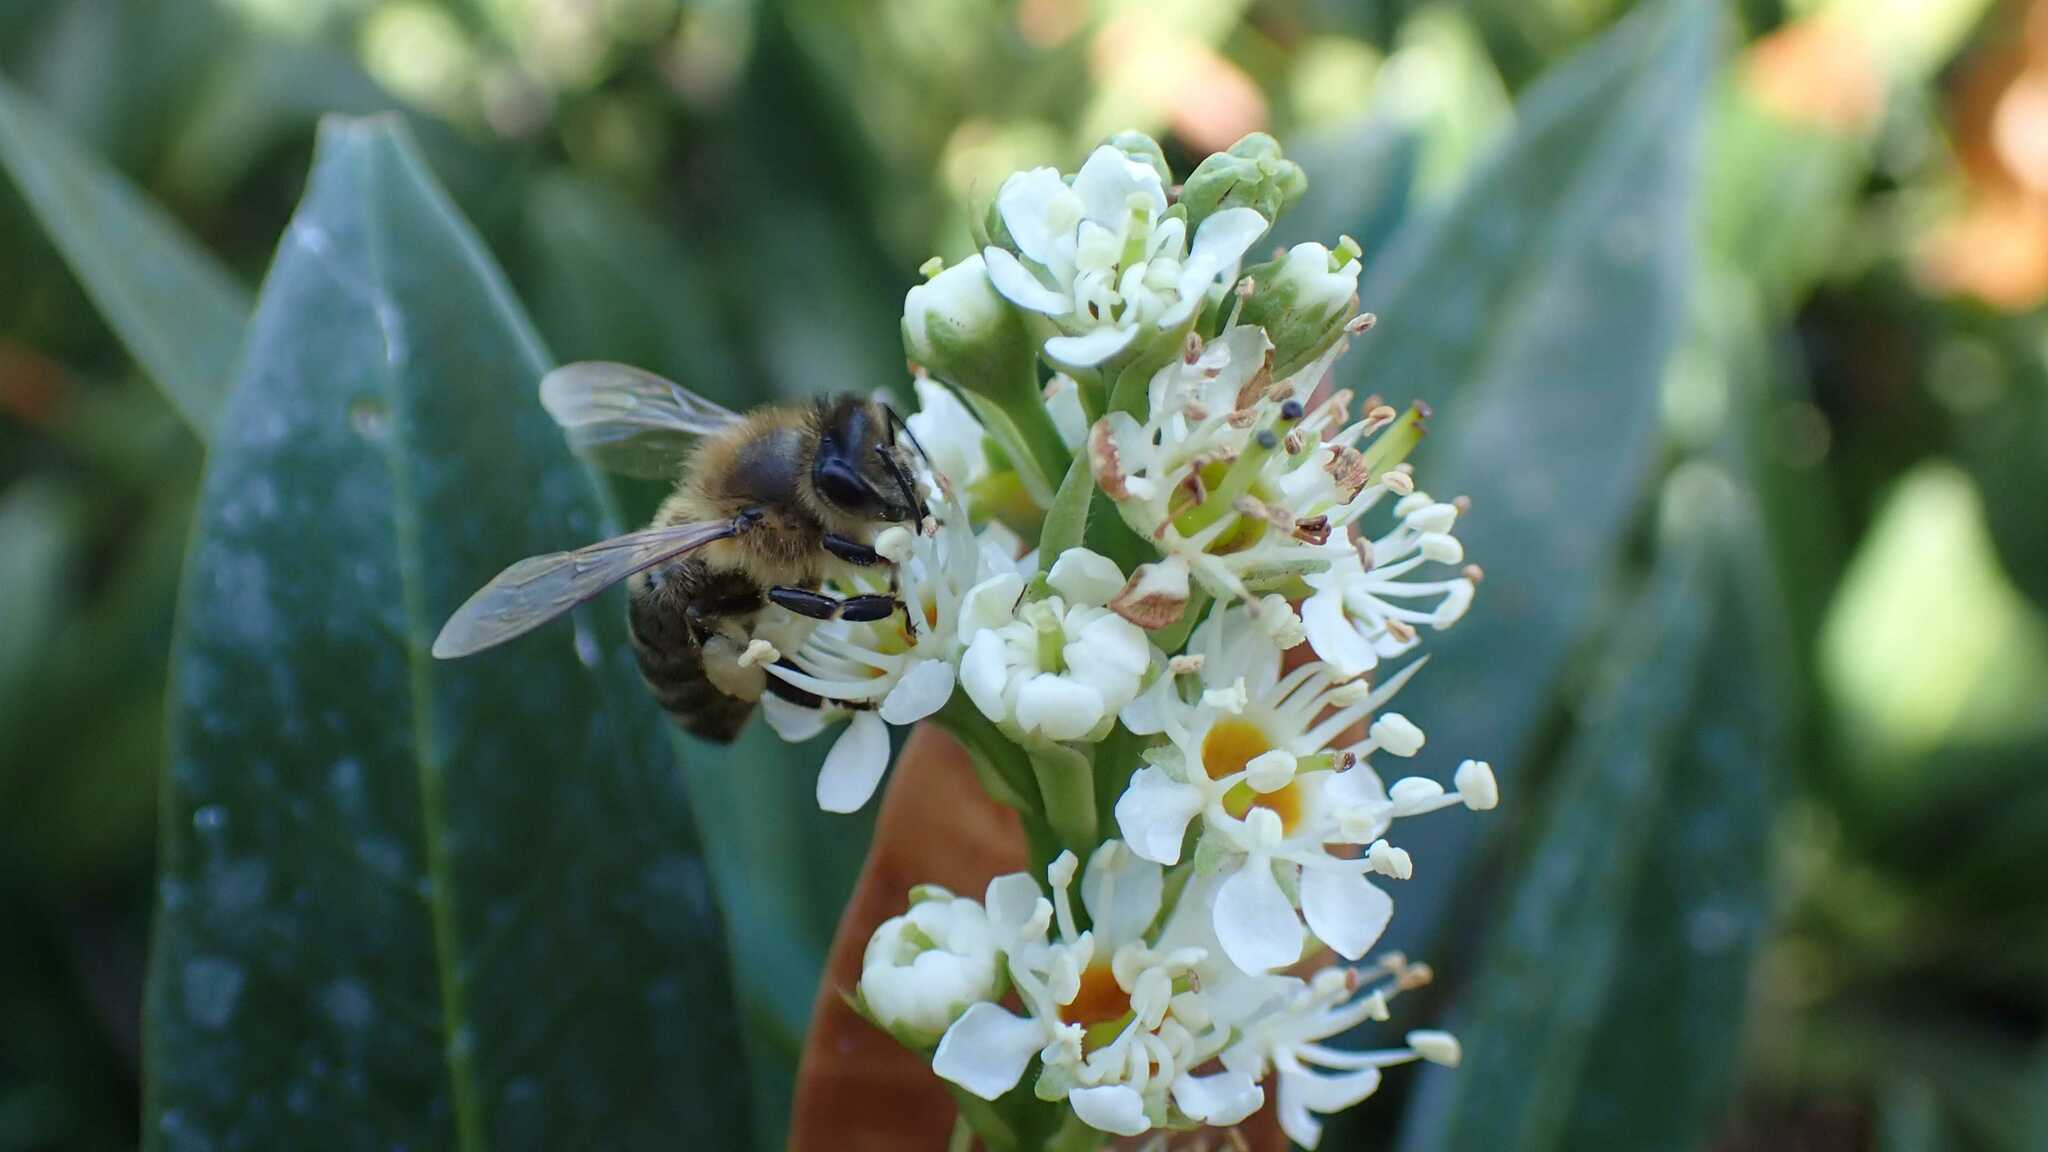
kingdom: Animalia
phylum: Arthropoda
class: Insecta
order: Hymenoptera
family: Apidae
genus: Apis
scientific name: Apis mellifera
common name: Honey bee
